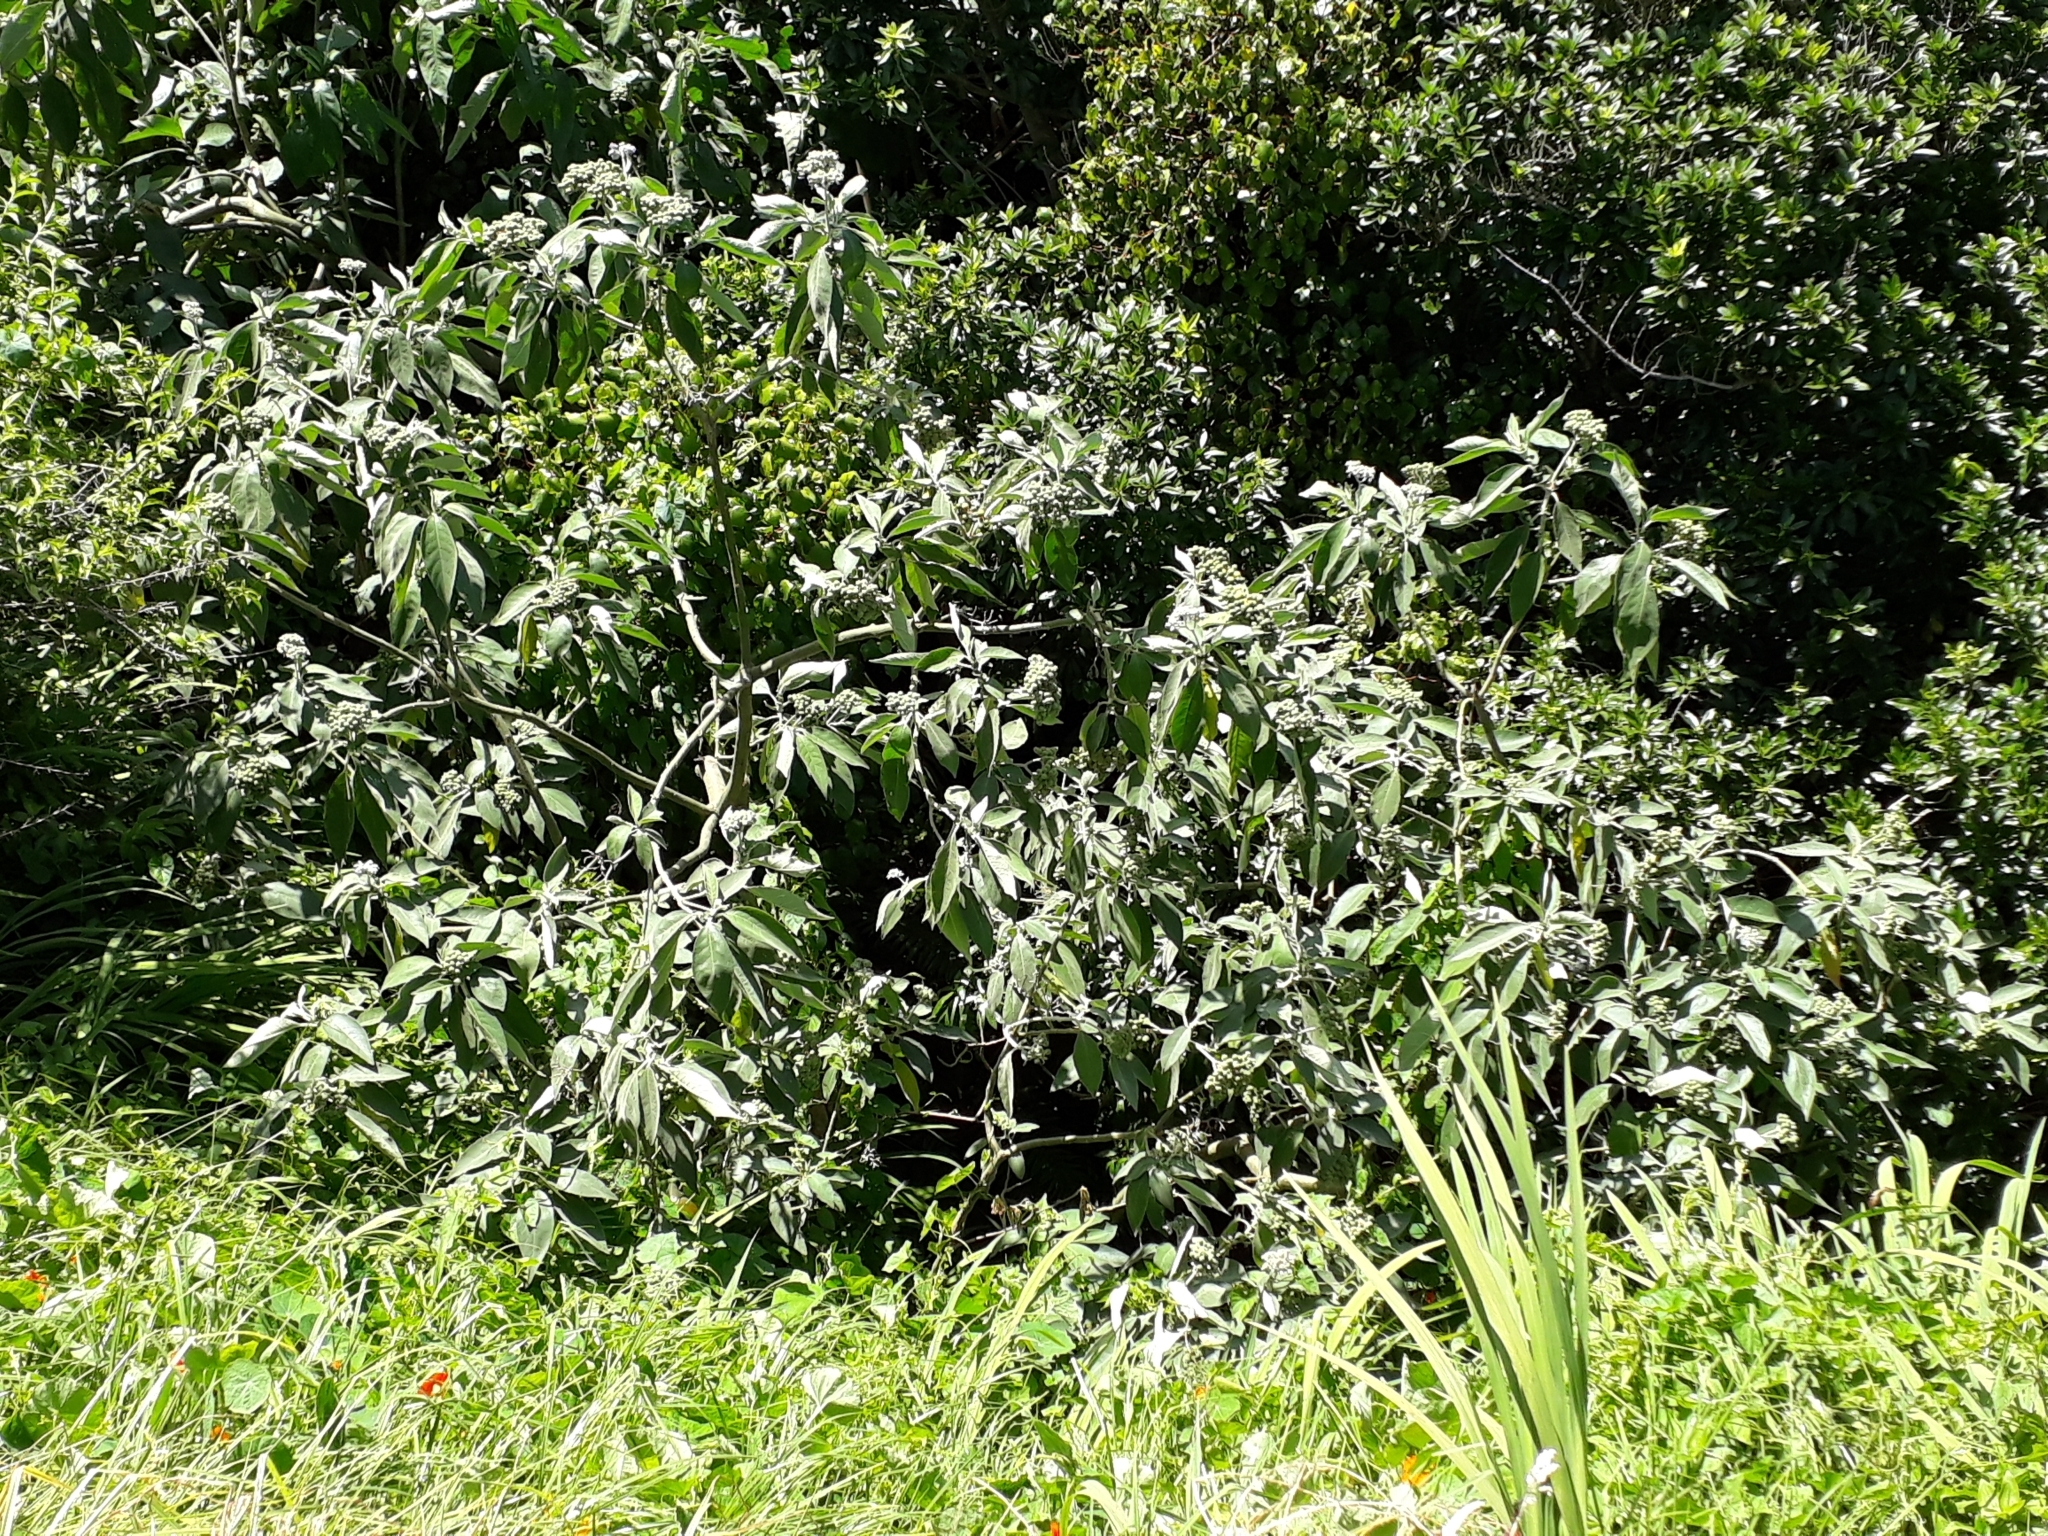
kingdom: Plantae
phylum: Tracheophyta
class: Magnoliopsida
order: Solanales
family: Solanaceae
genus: Solanum
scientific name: Solanum mauritianum
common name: Earleaf nightshade
